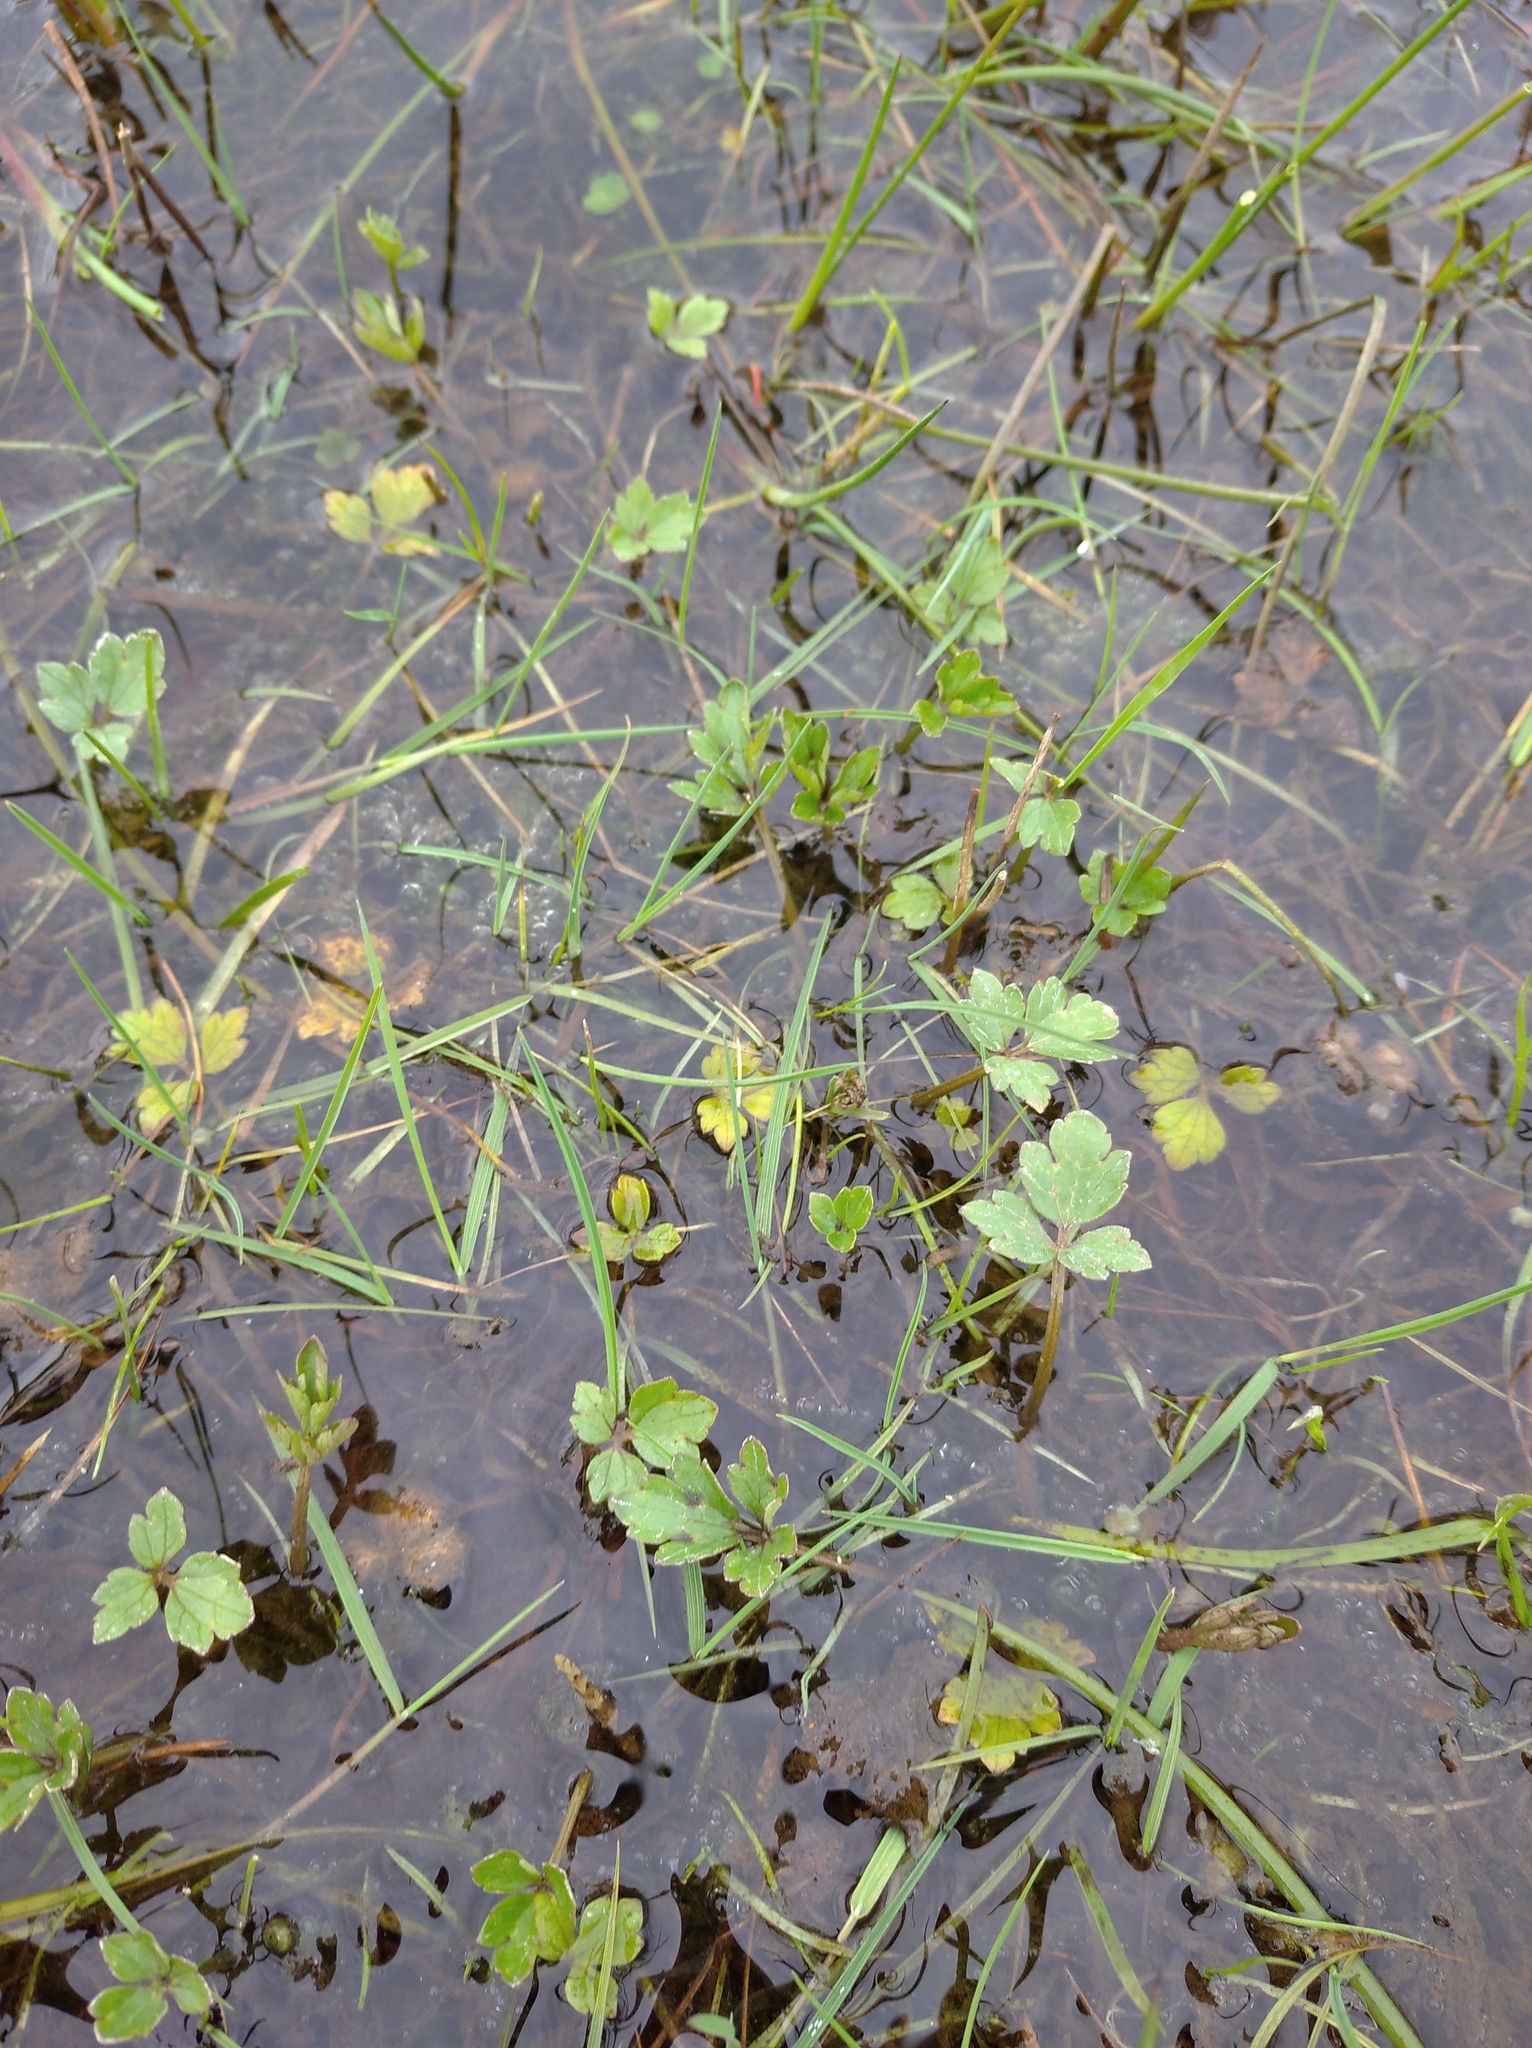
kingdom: Plantae
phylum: Tracheophyta
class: Magnoliopsida
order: Ranunculales
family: Ranunculaceae
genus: Ranunculus
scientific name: Ranunculus repens
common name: Creeping buttercup
